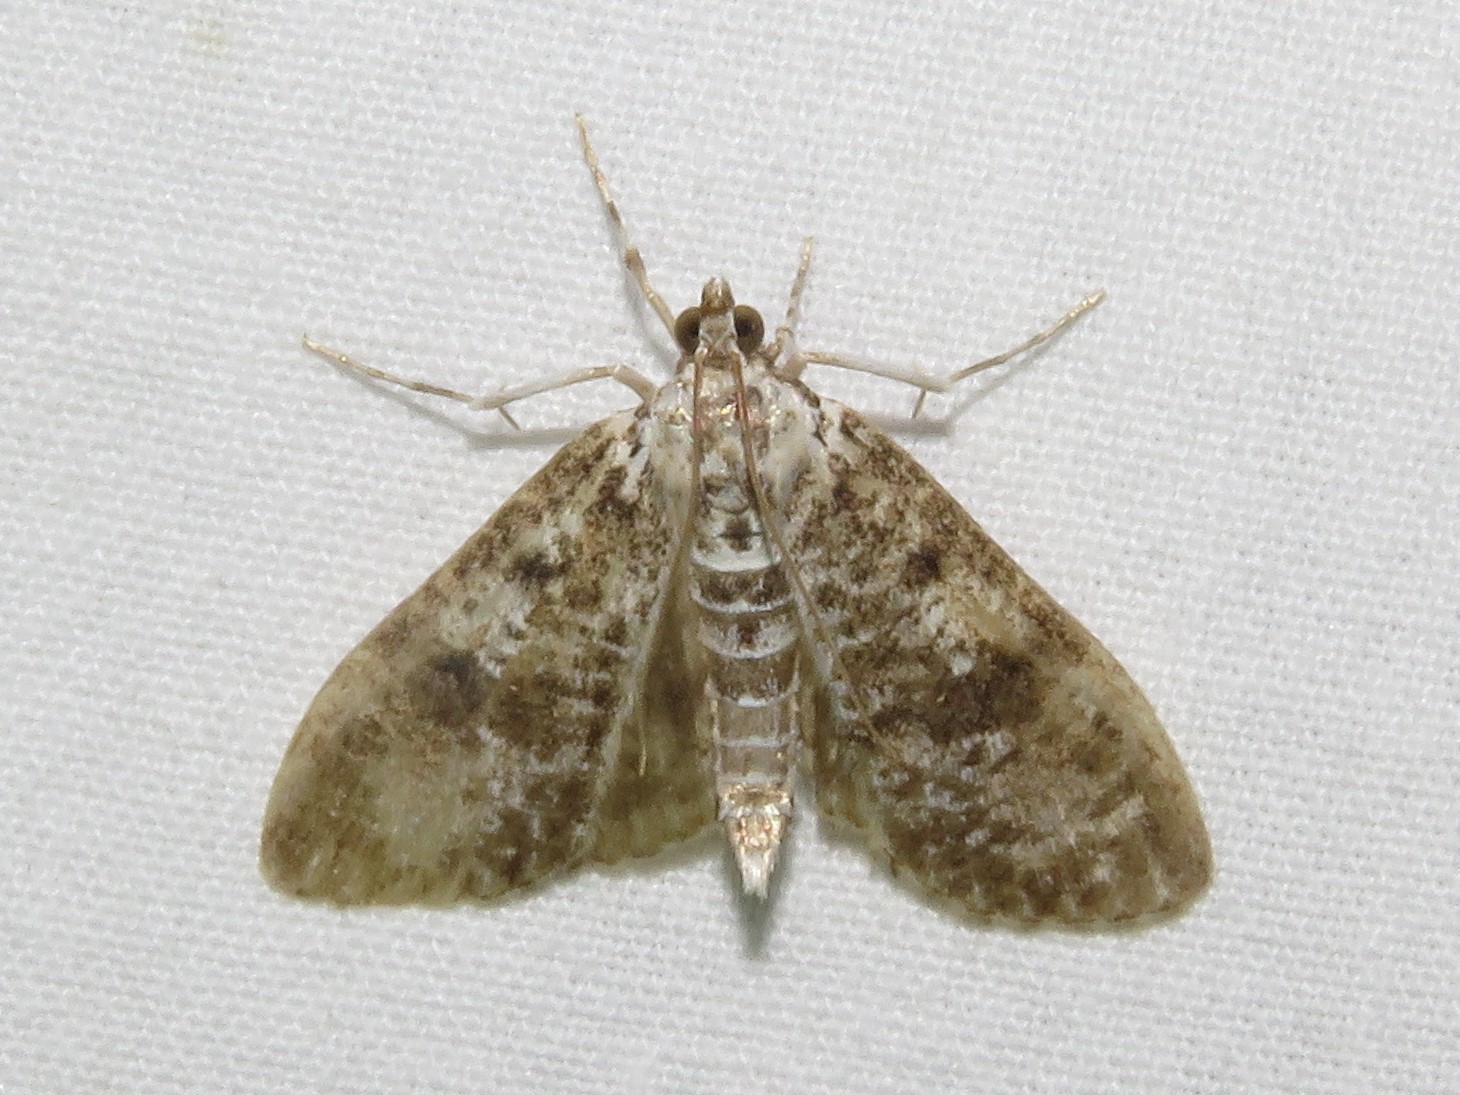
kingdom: Animalia
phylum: Arthropoda
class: Insecta
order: Lepidoptera
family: Crambidae
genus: Palpita
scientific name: Palpita magniferalis
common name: Splendid palpita moth
